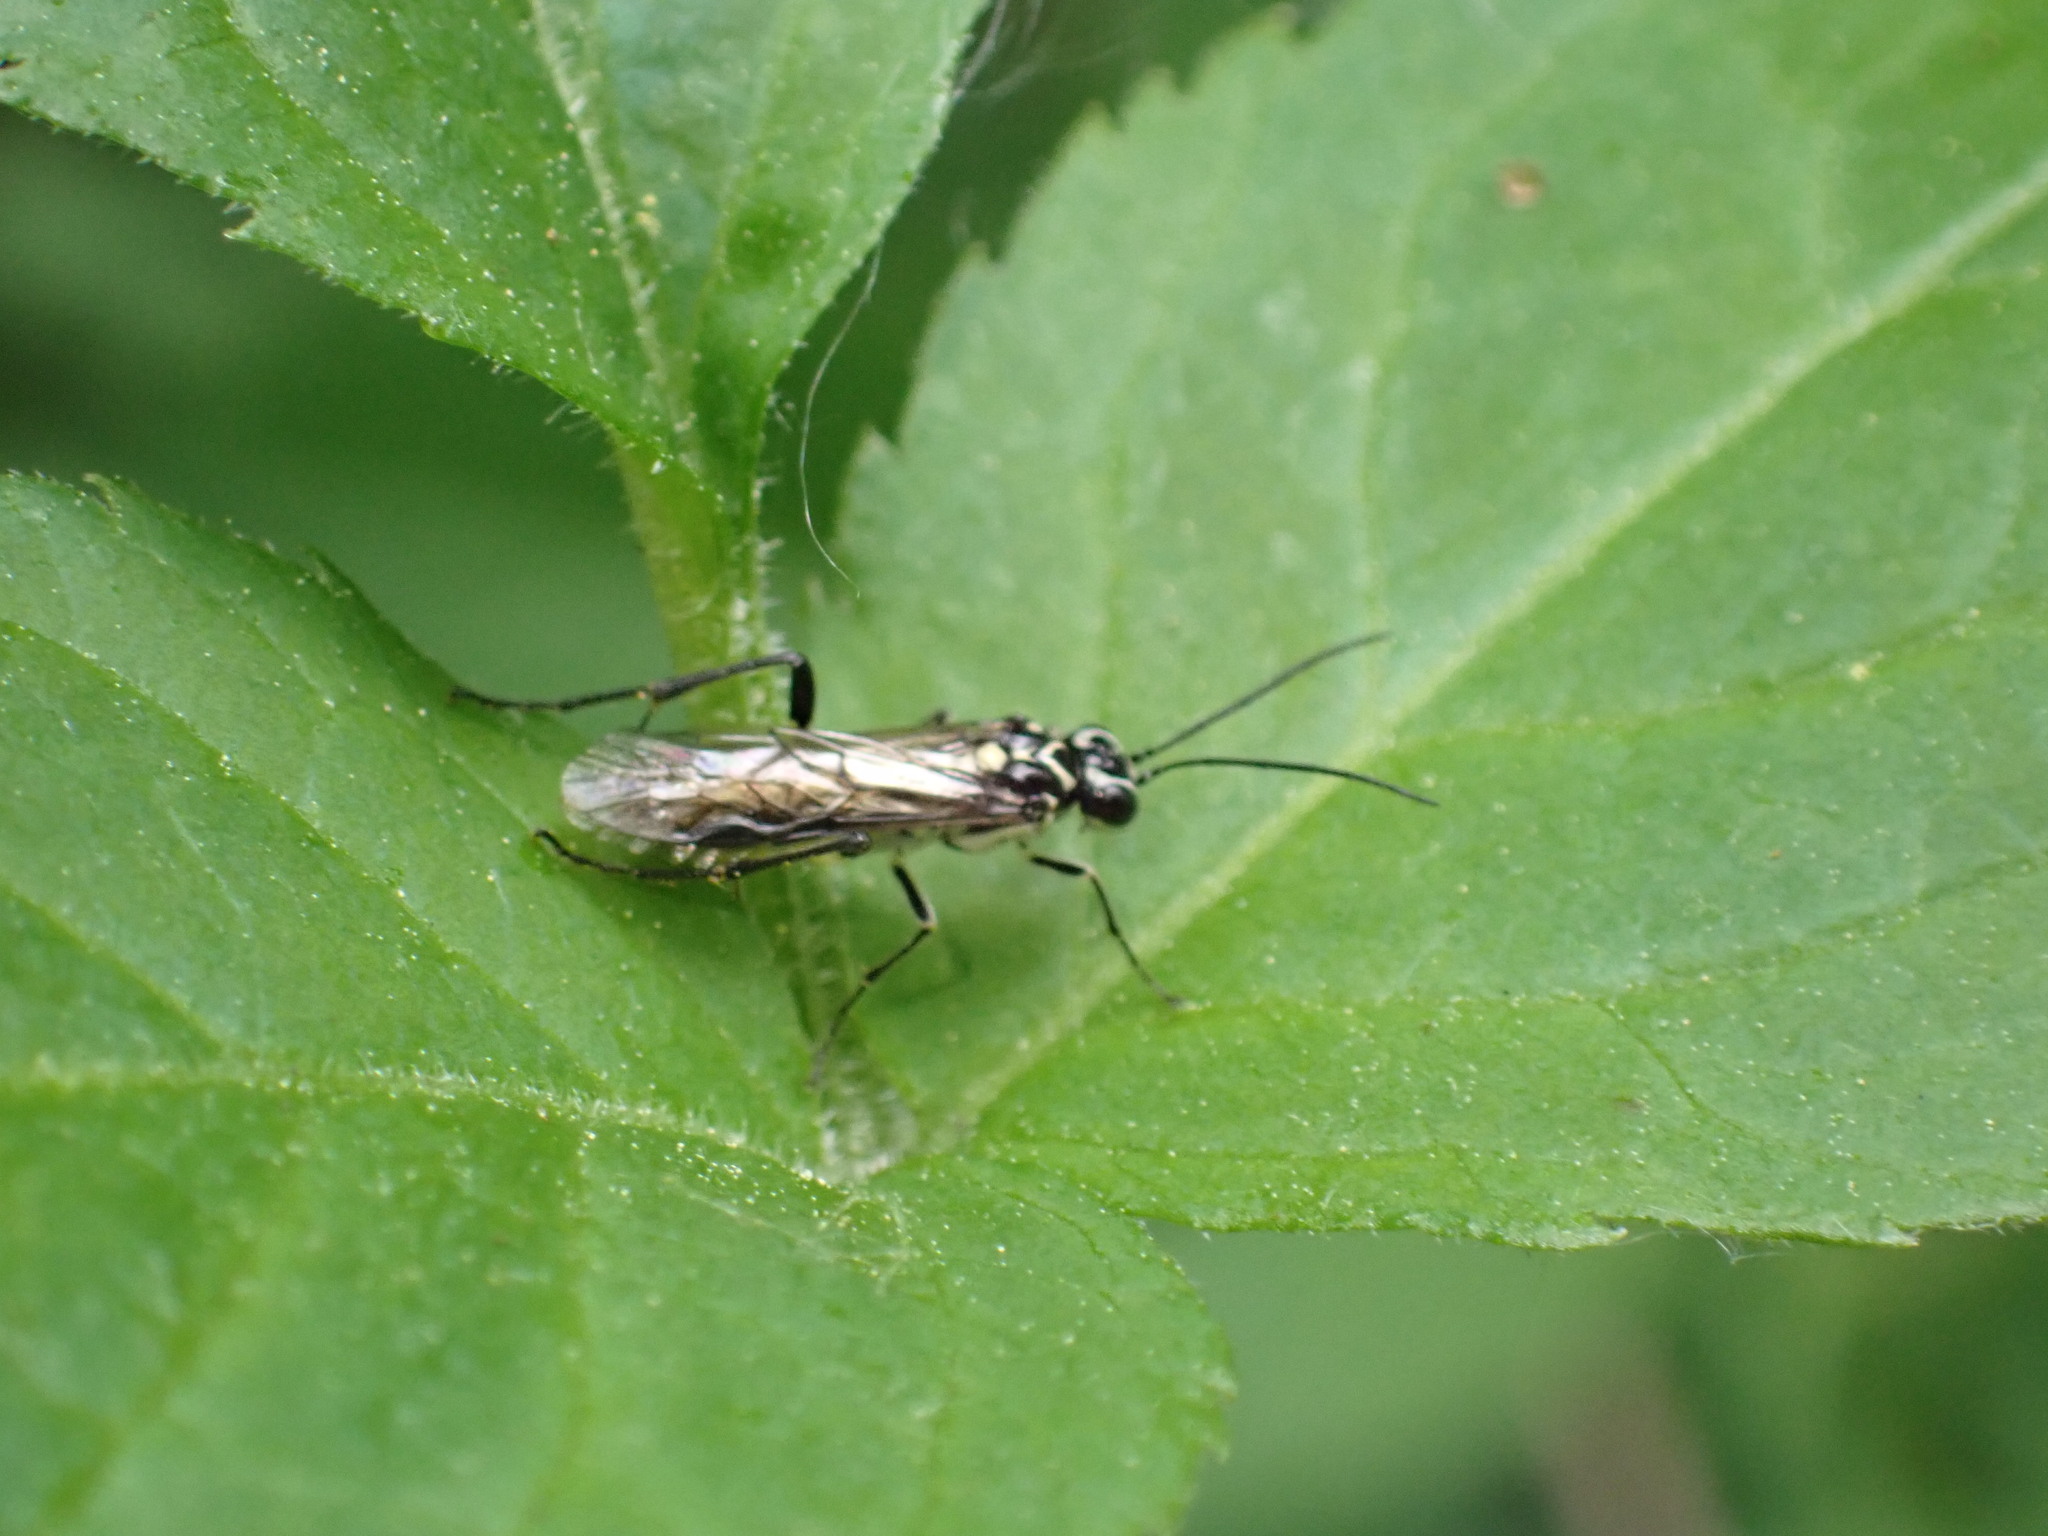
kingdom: Animalia
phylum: Arthropoda
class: Insecta
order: Hymenoptera
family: Tenthredinidae
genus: Pachyprotasis
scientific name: Pachyprotasis rapae
